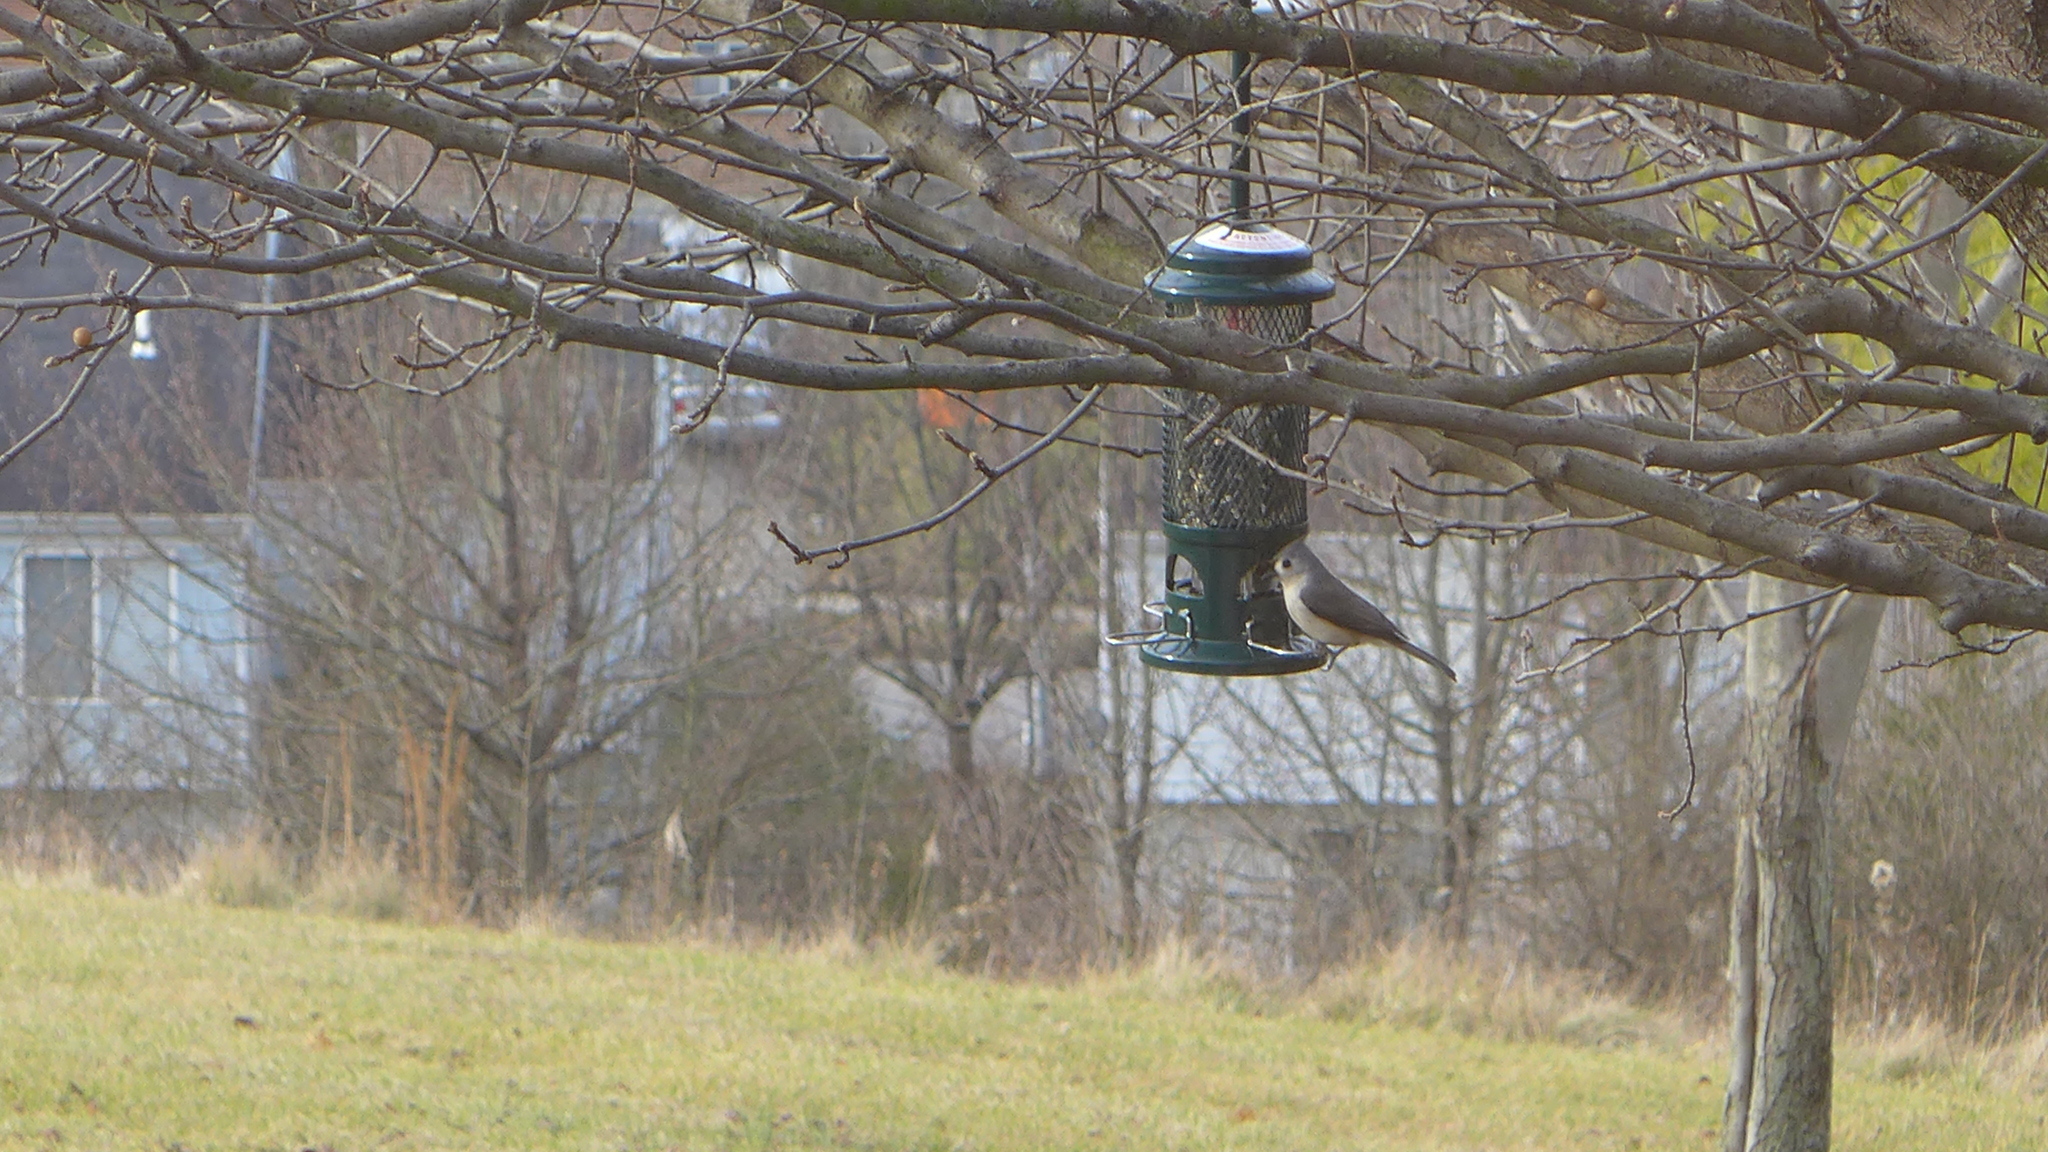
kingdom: Animalia
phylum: Chordata
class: Aves
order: Passeriformes
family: Paridae
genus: Baeolophus
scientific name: Baeolophus bicolor
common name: Tufted titmouse
